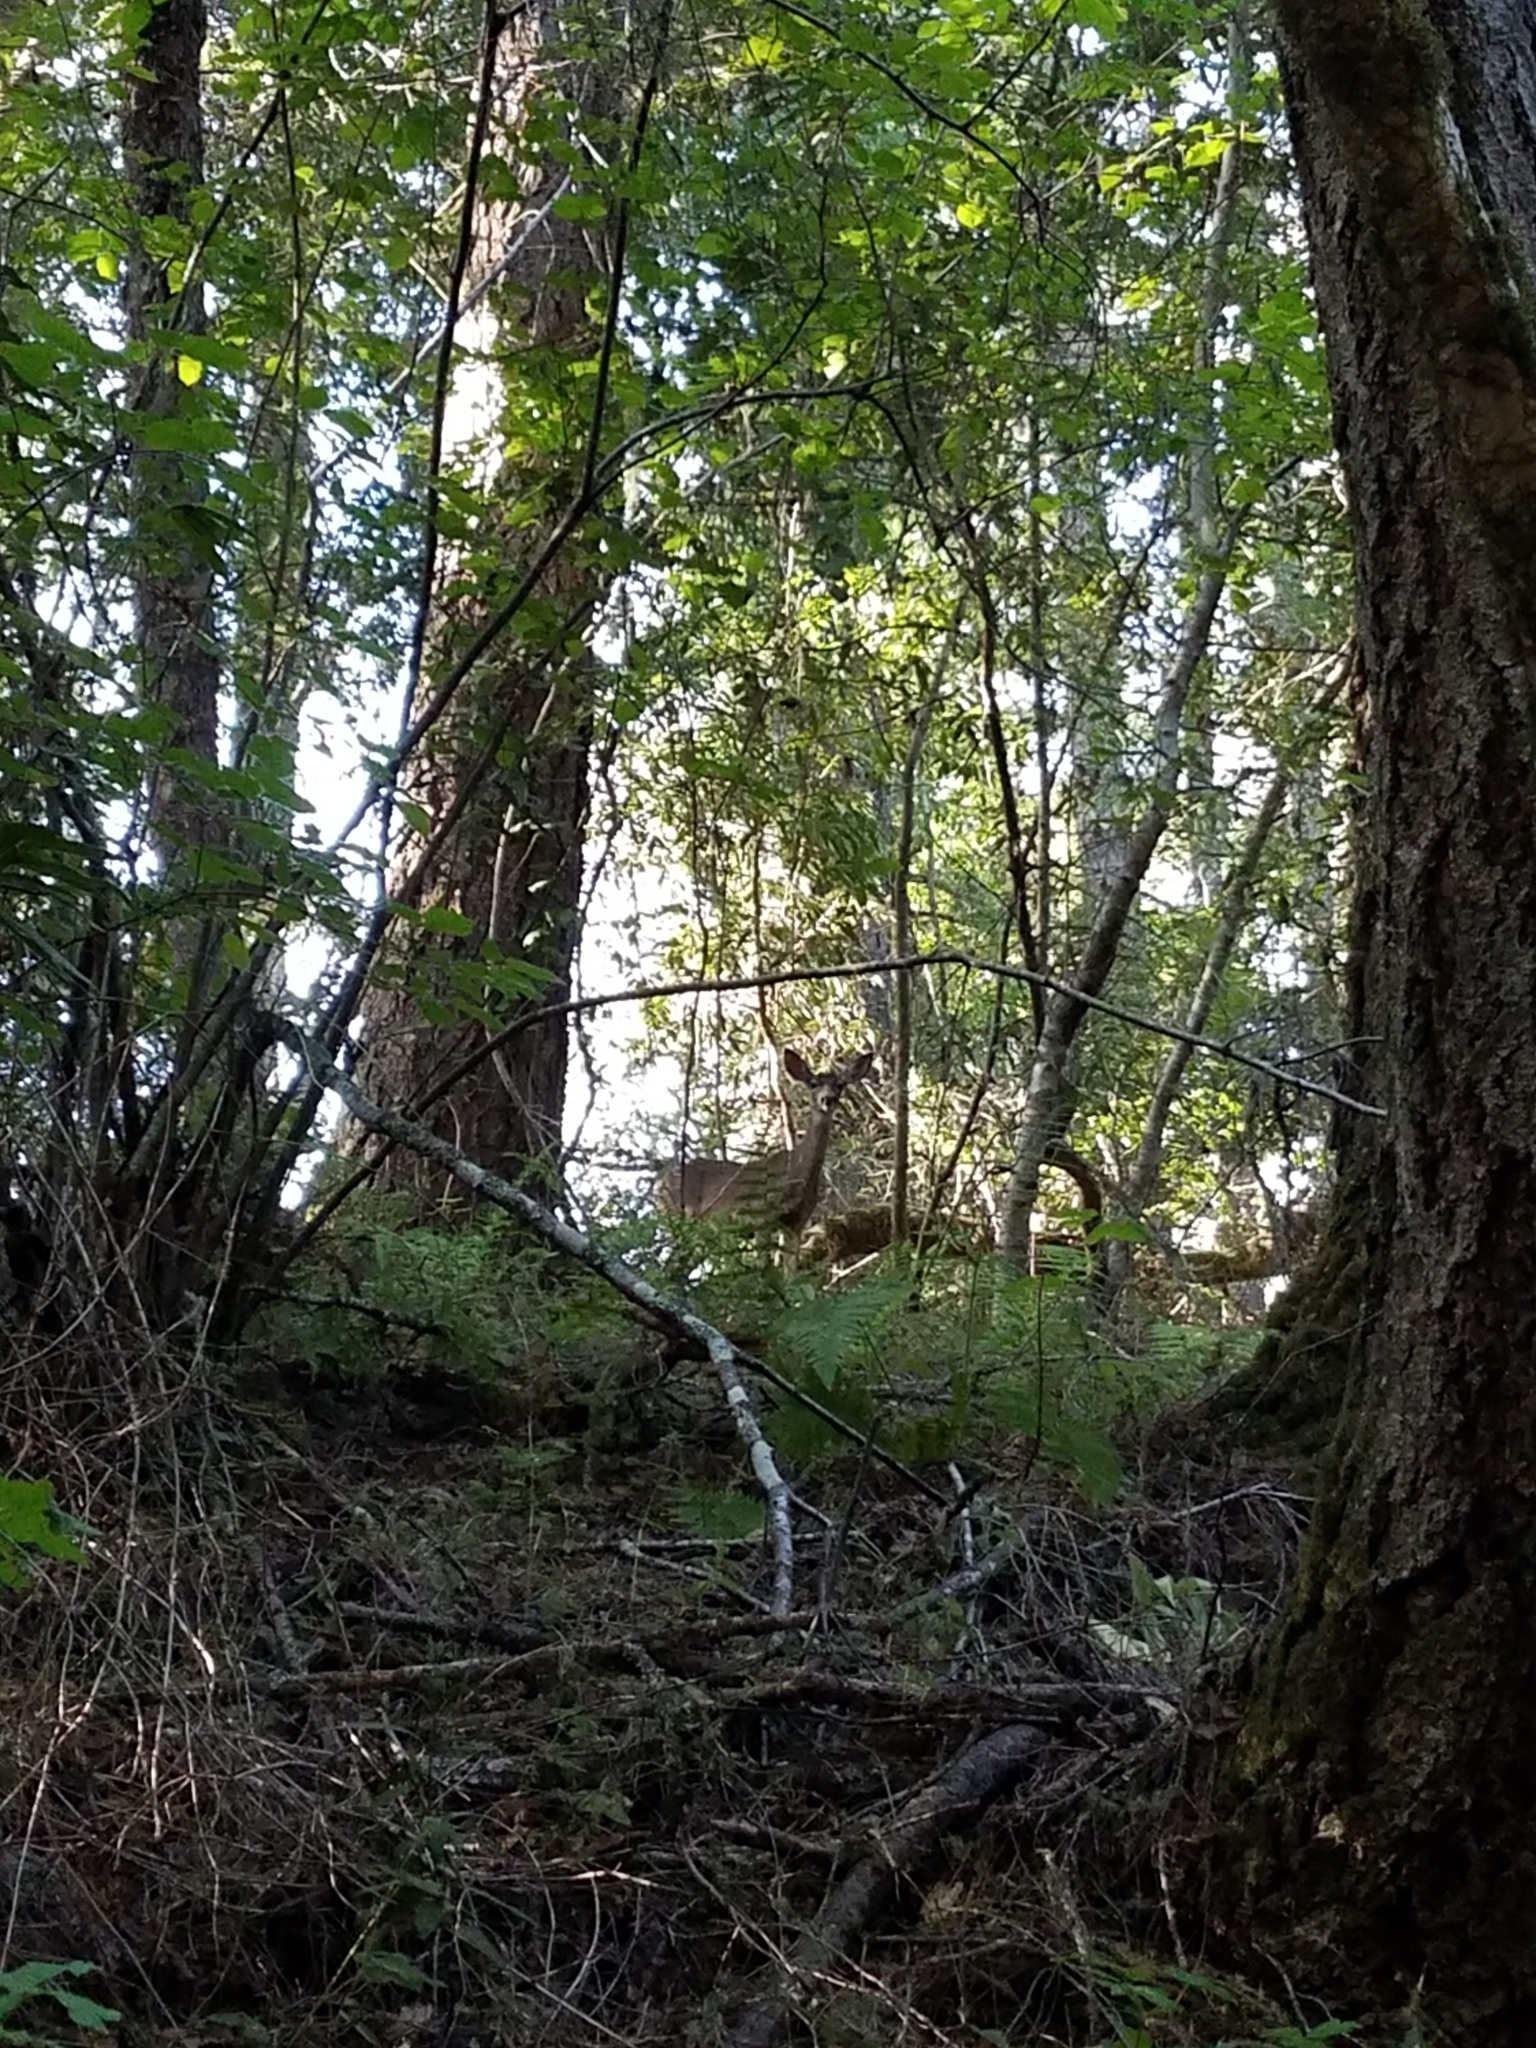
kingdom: Animalia
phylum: Chordata
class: Mammalia
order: Artiodactyla
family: Cervidae
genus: Odocoileus
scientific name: Odocoileus hemionus
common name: Mule deer
